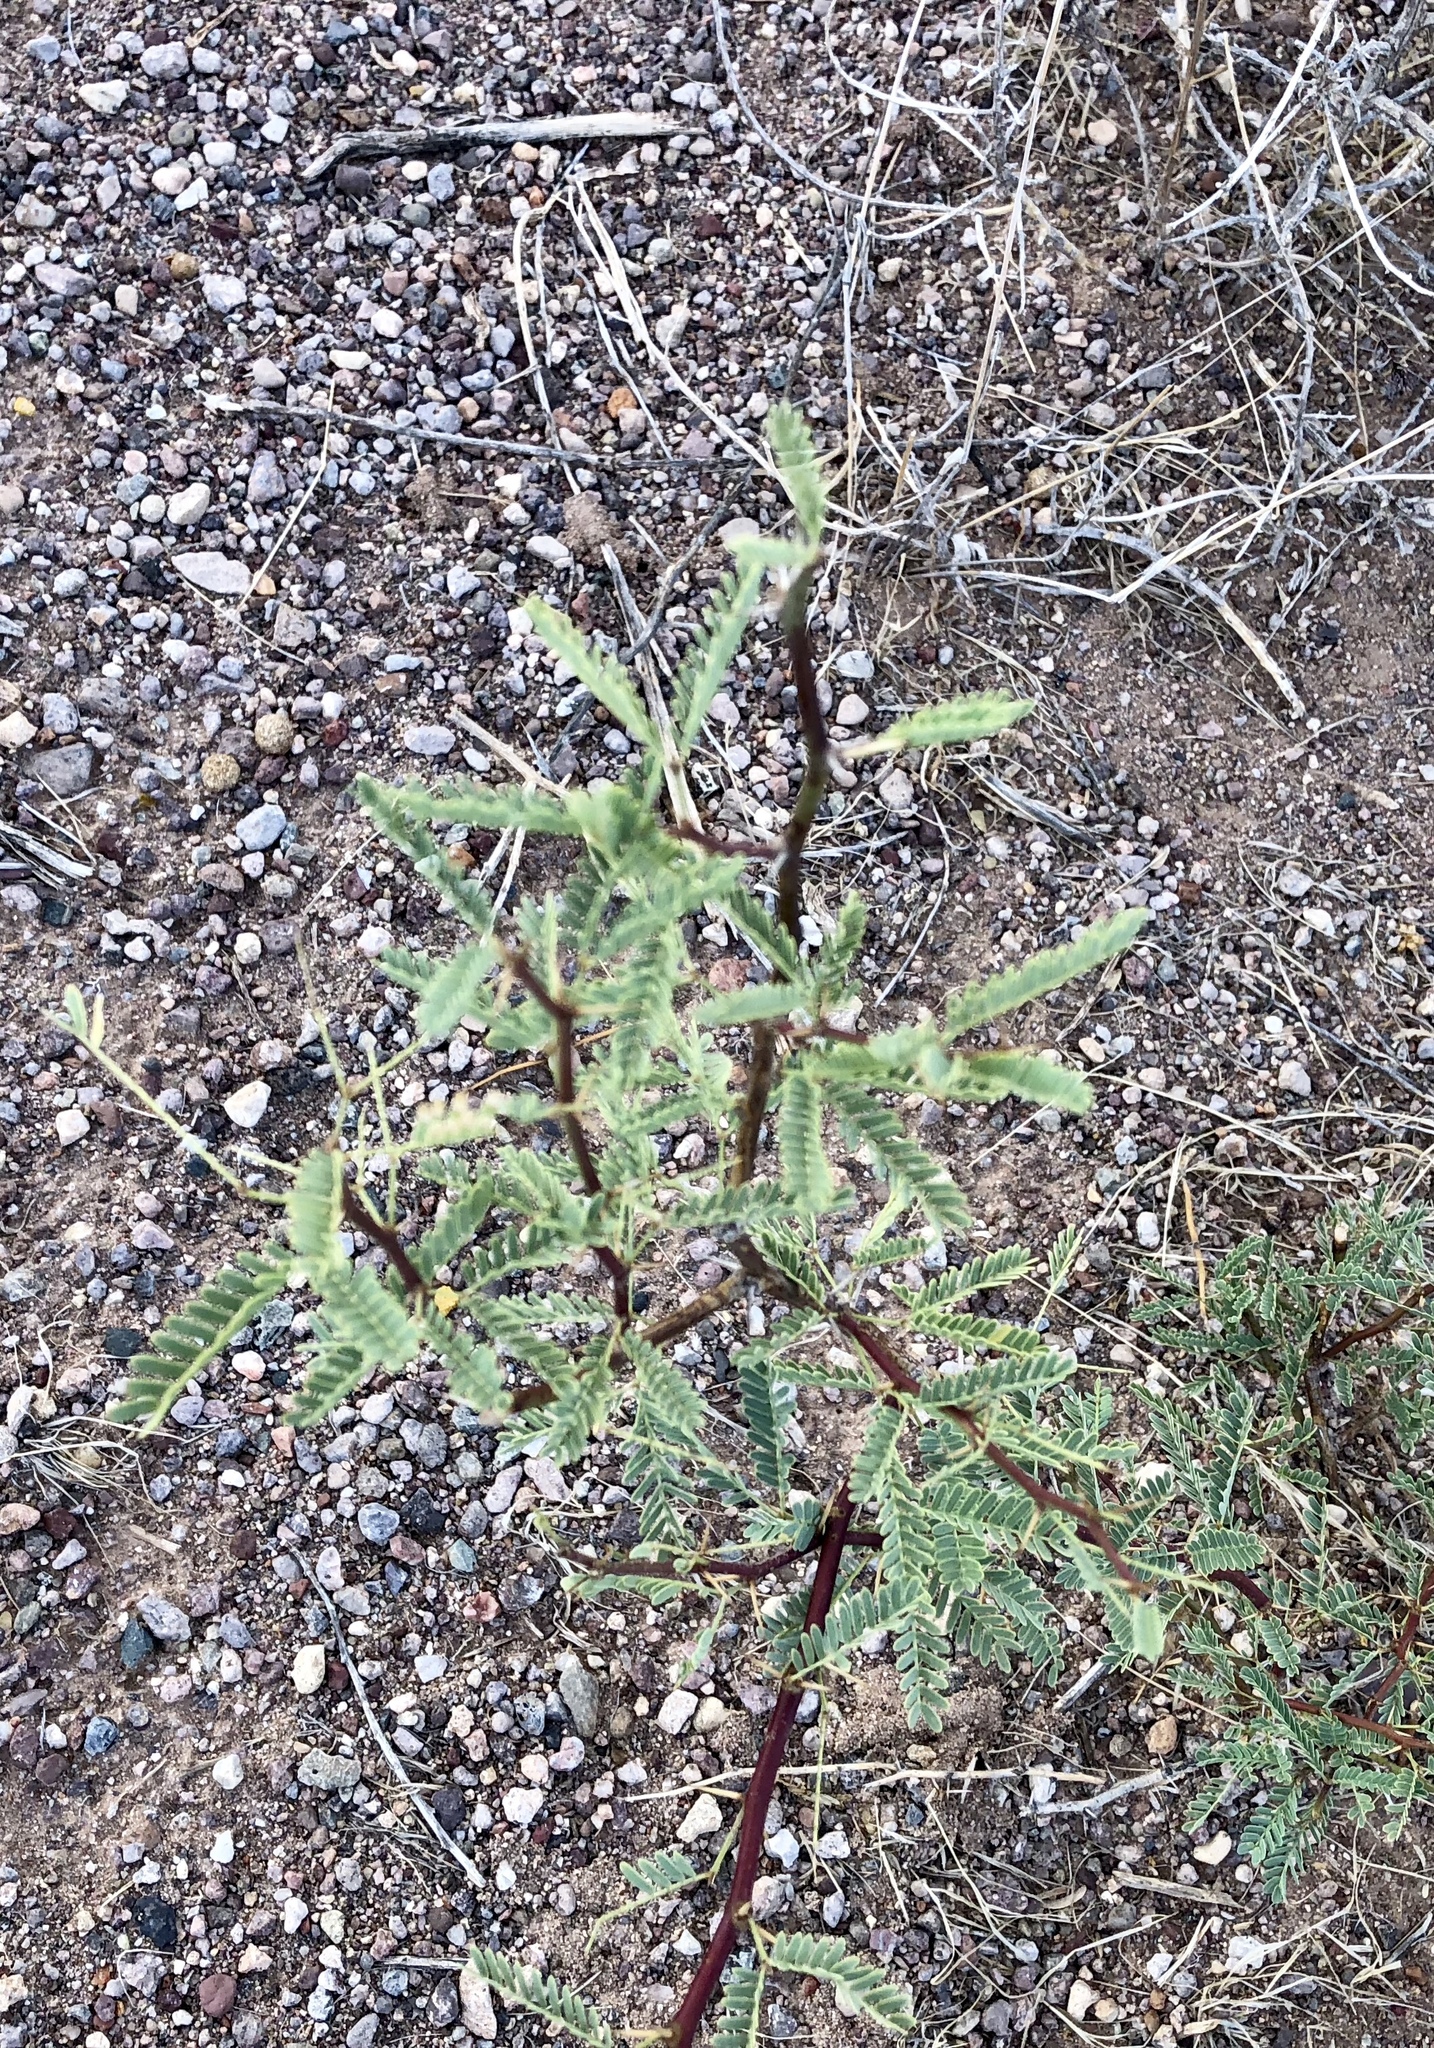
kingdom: Plantae
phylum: Tracheophyta
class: Magnoliopsida
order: Fabales
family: Fabaceae
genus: Prosopis
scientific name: Prosopis velutina
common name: Velvet mesquite
